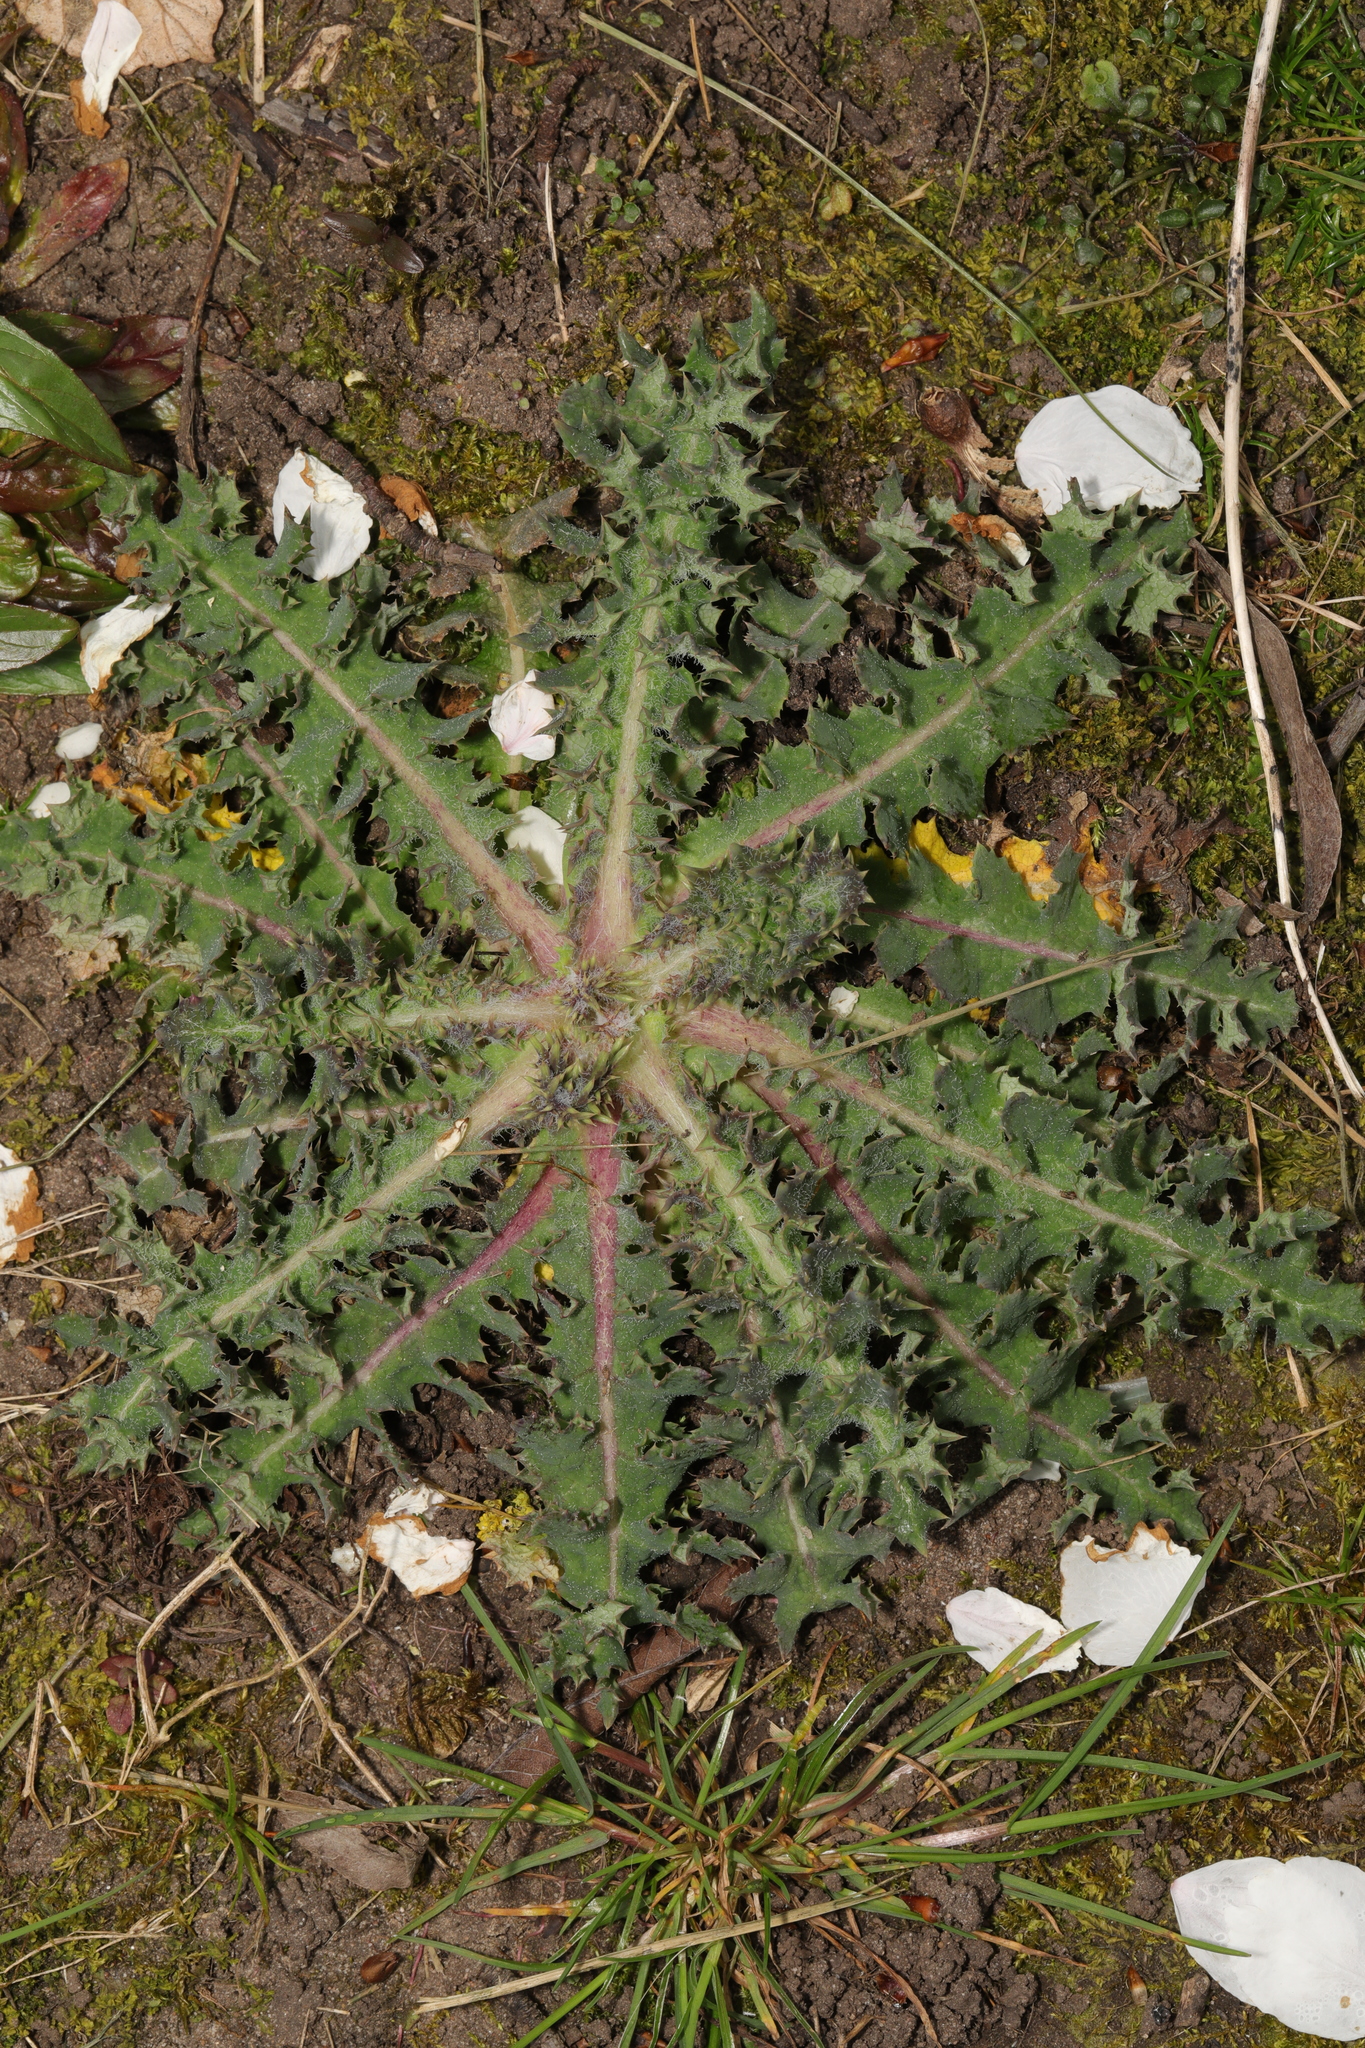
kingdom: Plantae
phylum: Tracheophyta
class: Magnoliopsida
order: Asterales
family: Asteraceae
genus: Sonchus
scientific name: Sonchus asper
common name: Prickly sow-thistle
